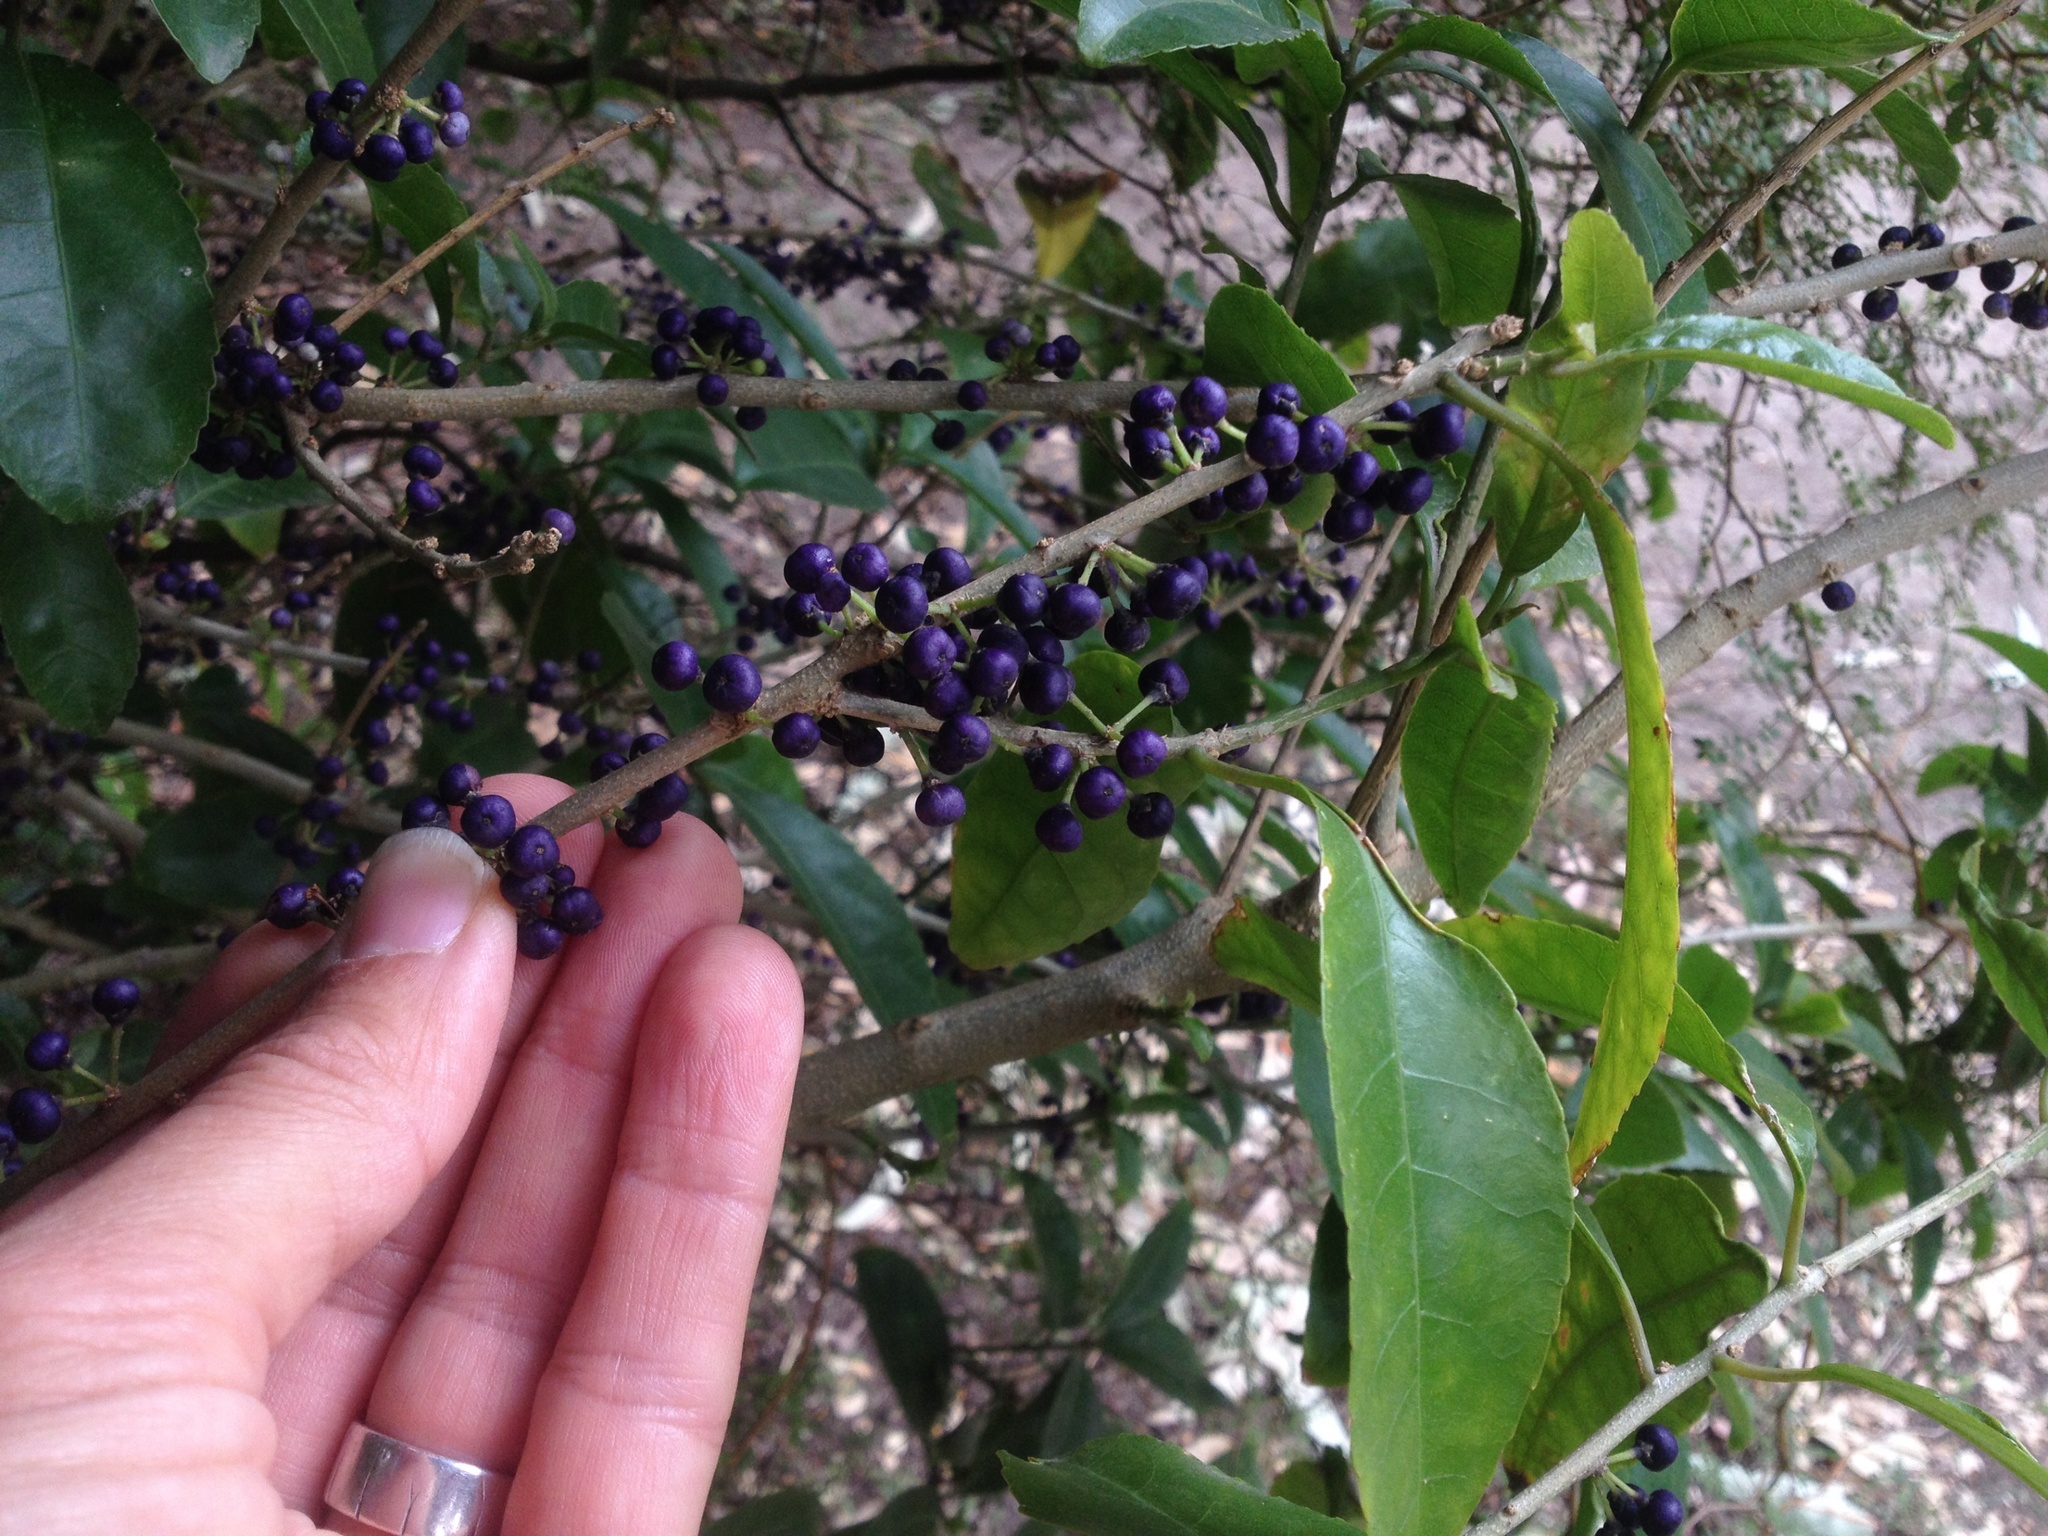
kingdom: Plantae
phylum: Tracheophyta
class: Magnoliopsida
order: Malpighiales
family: Violaceae
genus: Melicytus
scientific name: Melicytus ramiflorus
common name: Mahoe
